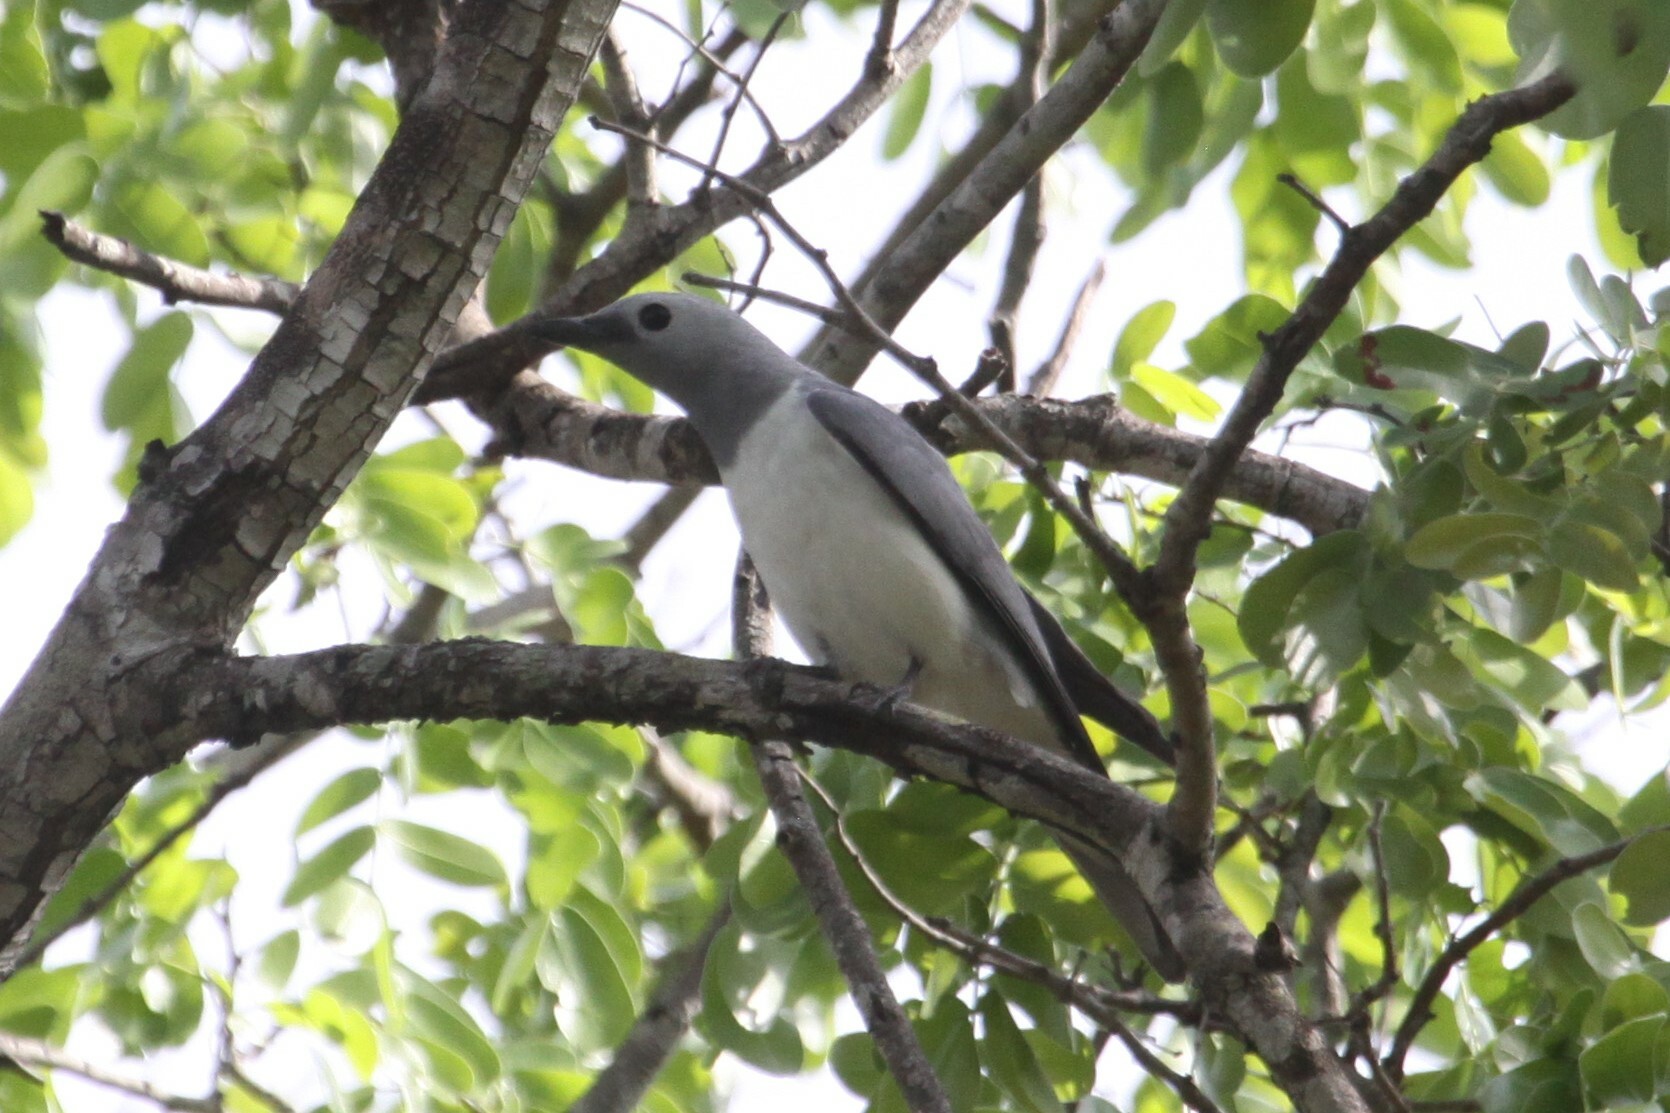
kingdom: Animalia
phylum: Chordata
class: Aves
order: Passeriformes
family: Campephagidae
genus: Coracina
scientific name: Coracina pectoralis
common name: White-breasted cuckooshrike
